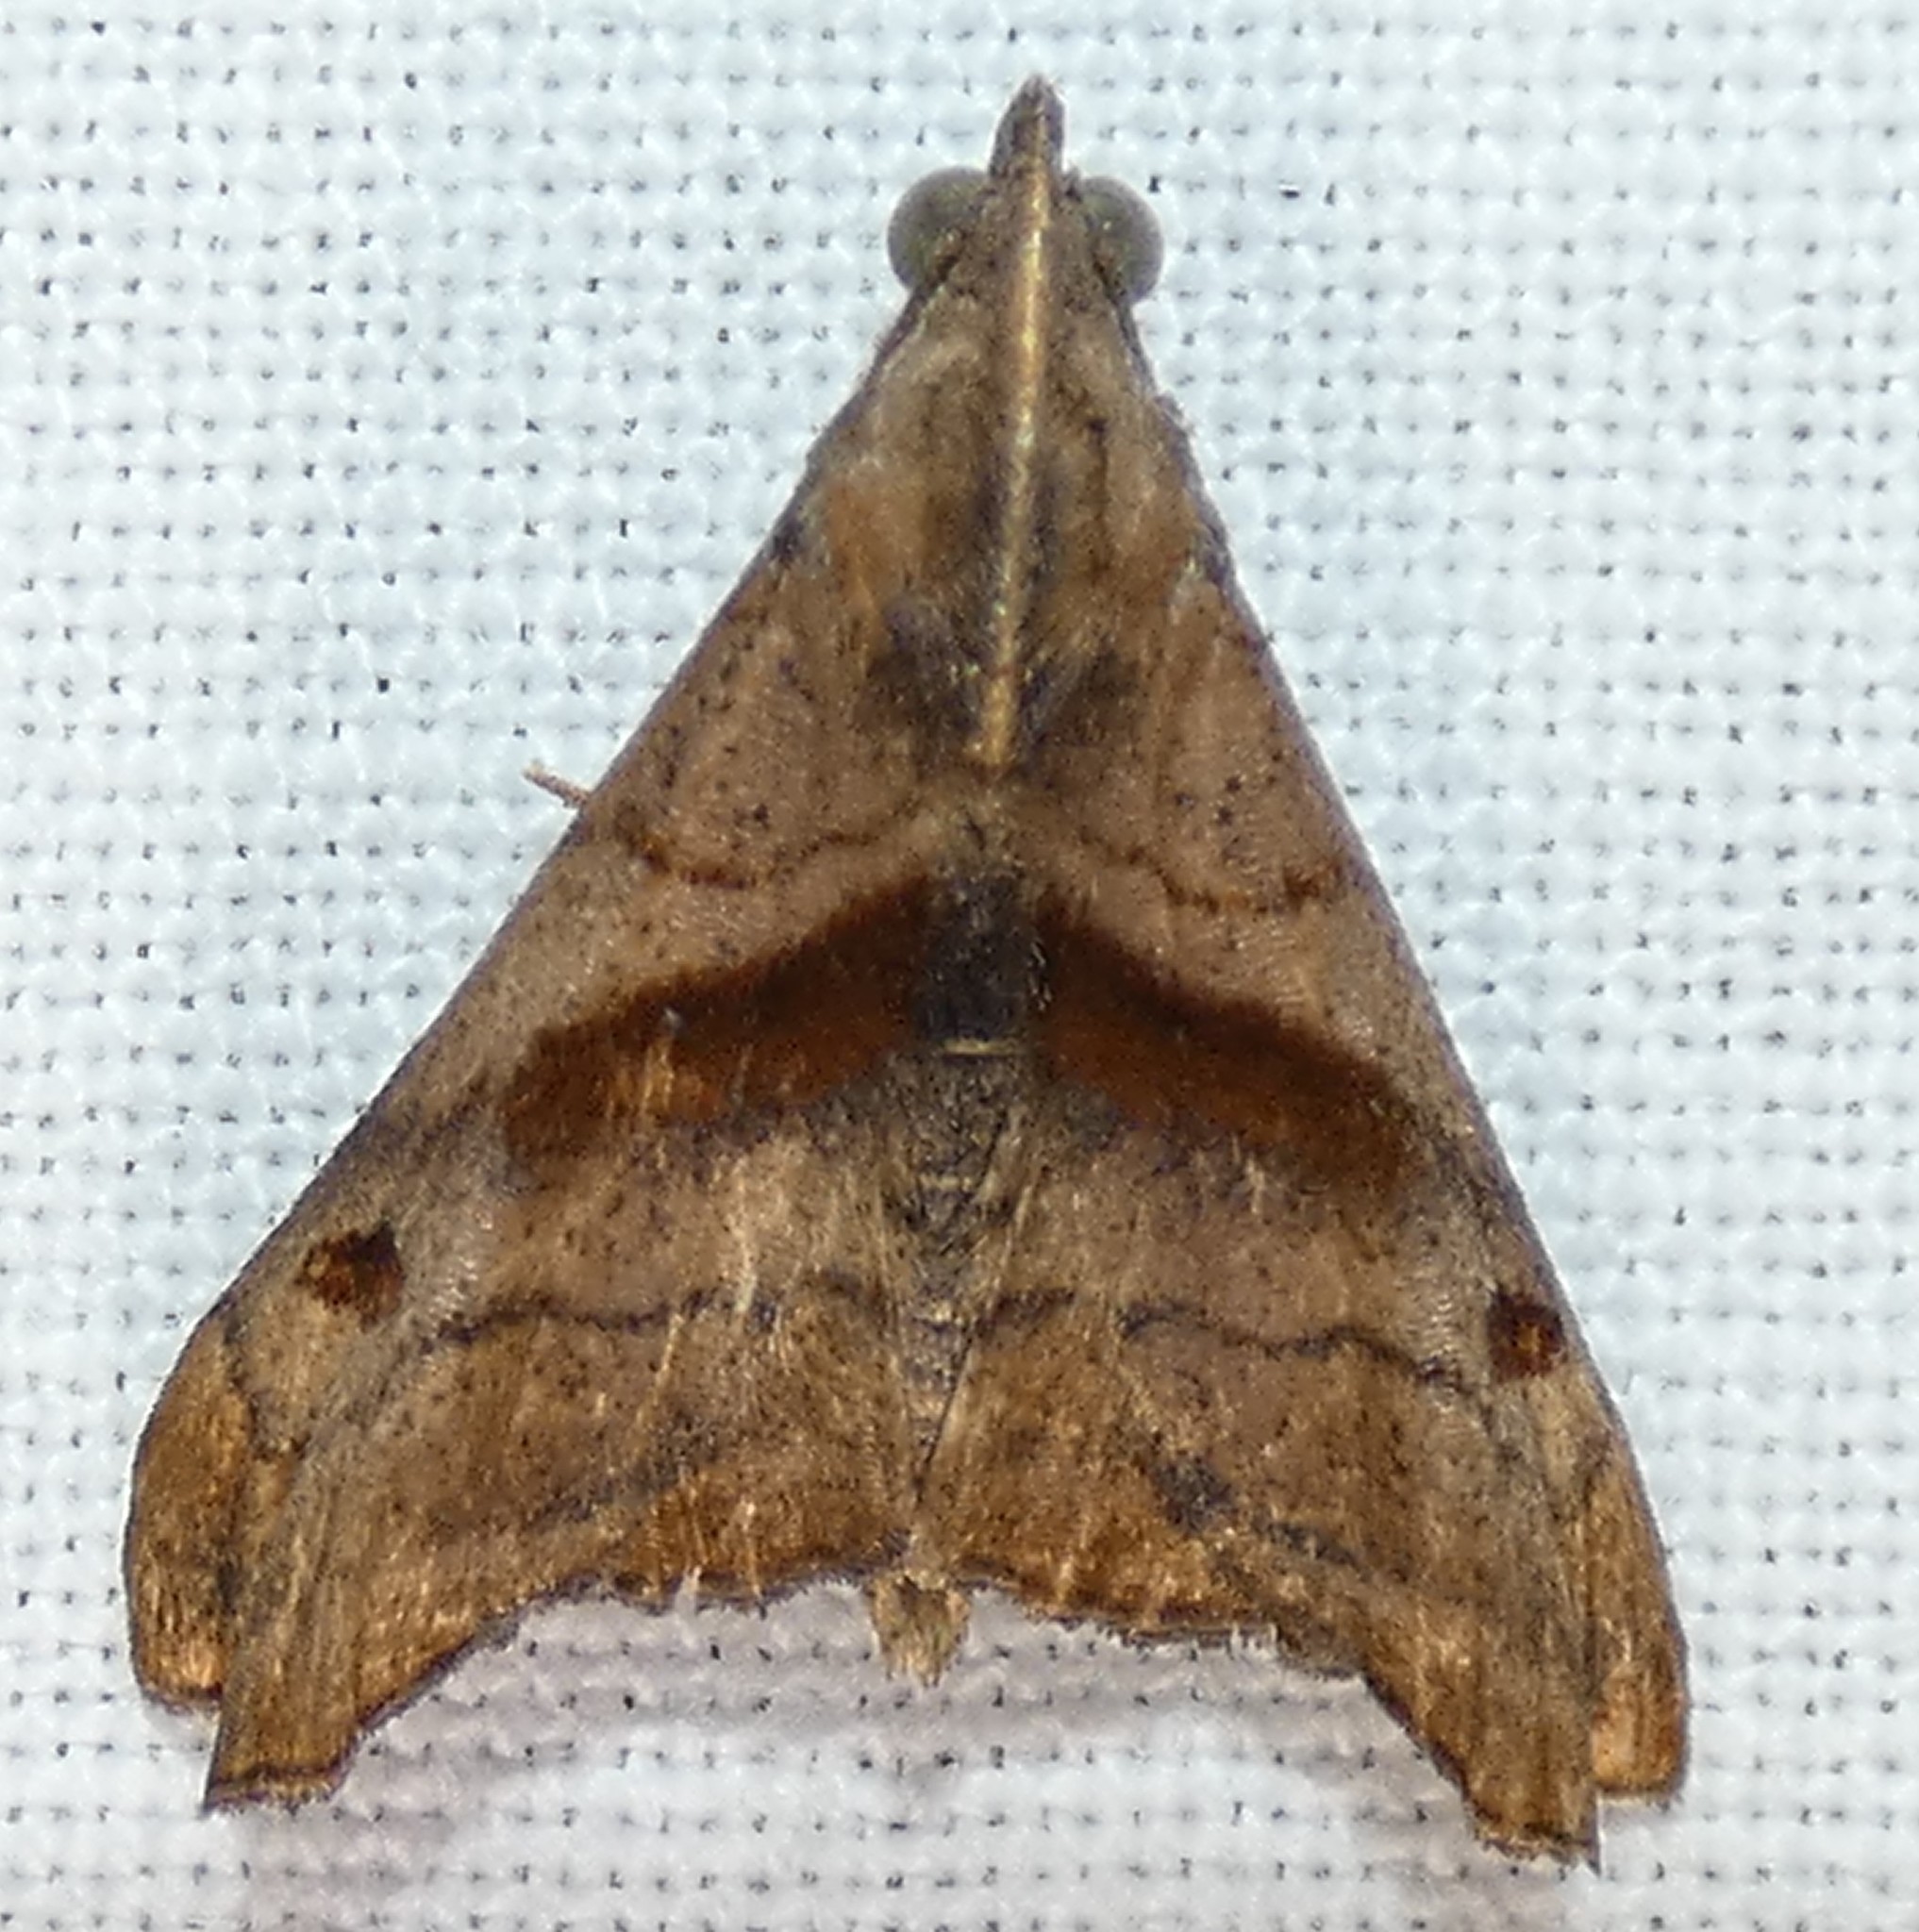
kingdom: Animalia
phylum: Arthropoda
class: Insecta
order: Lepidoptera
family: Erebidae
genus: Palthis
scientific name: Palthis angulalis
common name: Dark-spotted palthis moth
